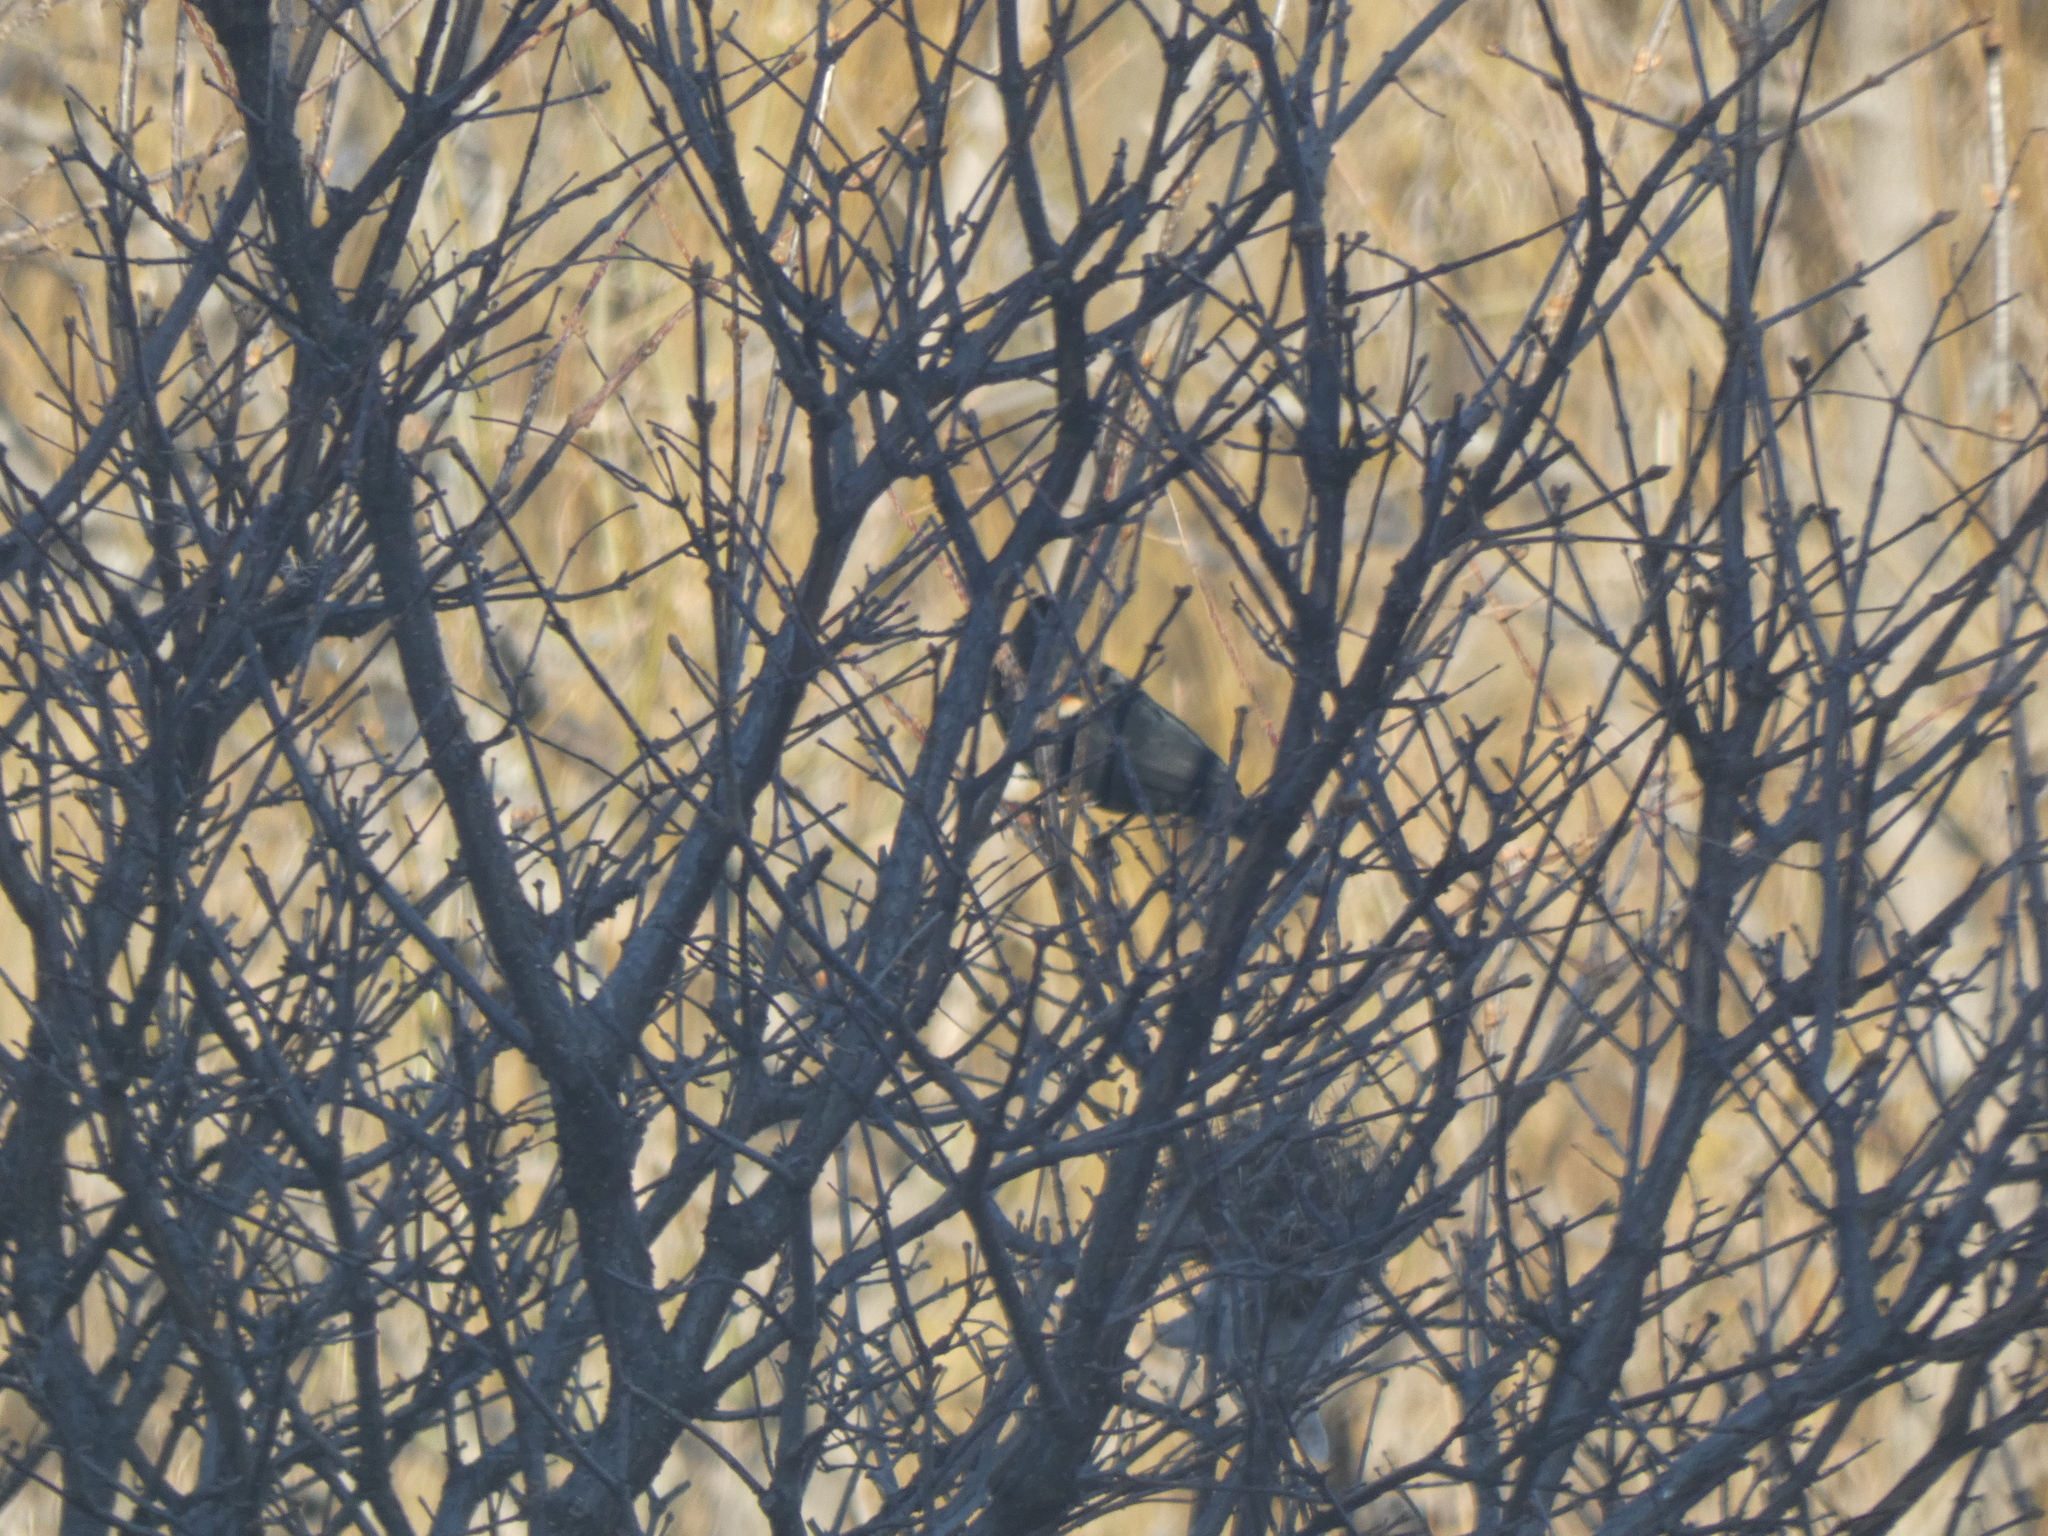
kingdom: Animalia
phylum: Chordata
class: Aves
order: Passeriformes
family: Icteridae
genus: Agelaius
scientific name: Agelaius phoeniceus
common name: Red-winged blackbird
